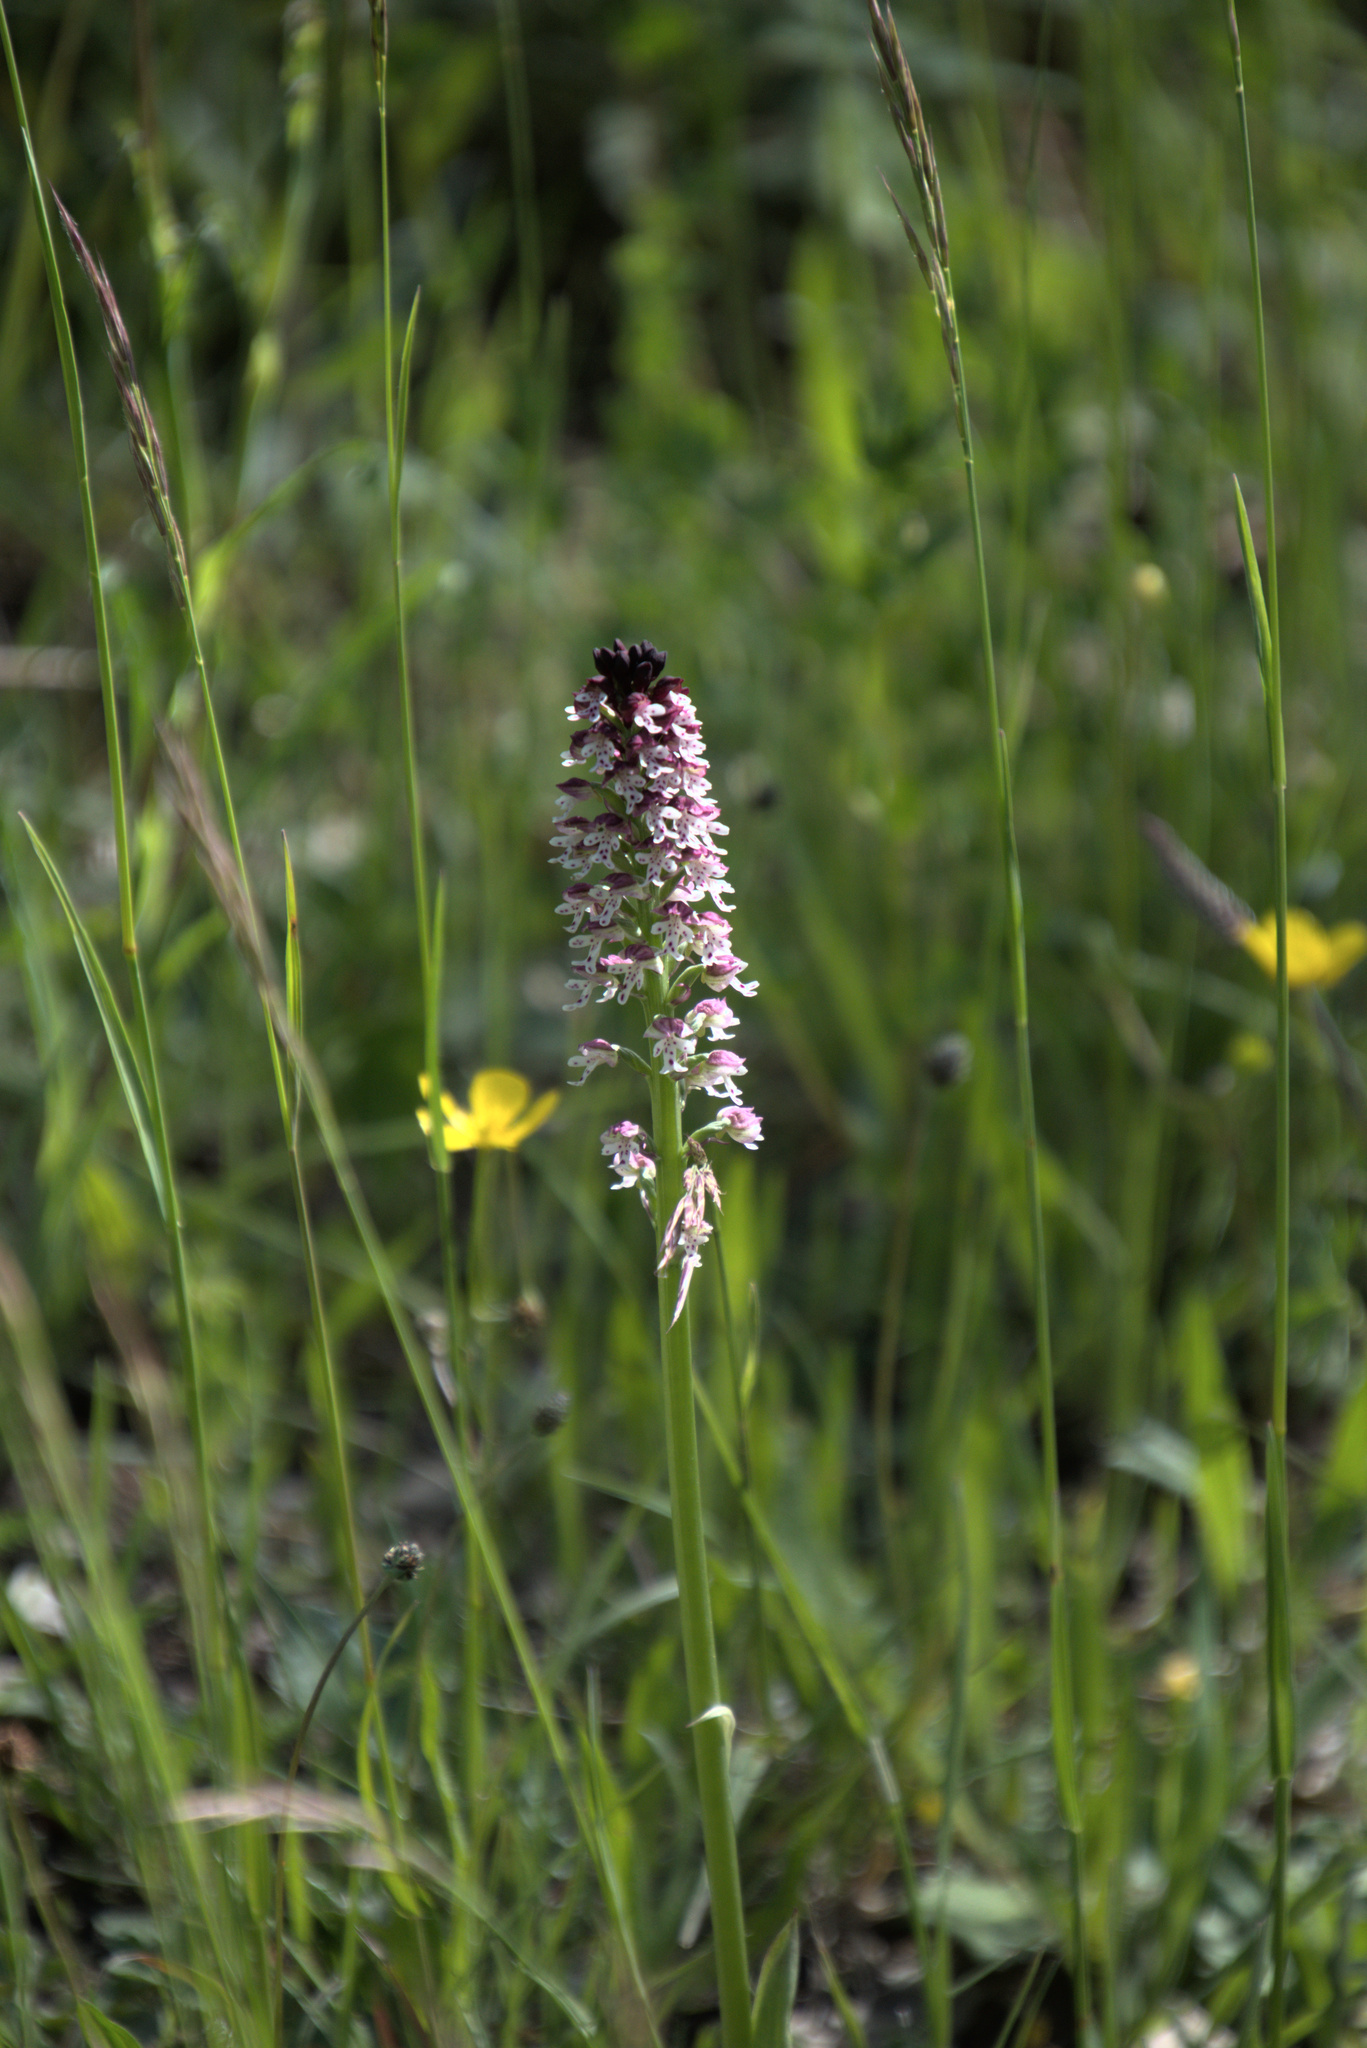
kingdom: Plantae
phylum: Tracheophyta
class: Liliopsida
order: Asparagales
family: Orchidaceae
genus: Neotinea
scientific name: Neotinea ustulata
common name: Burnt orchid
